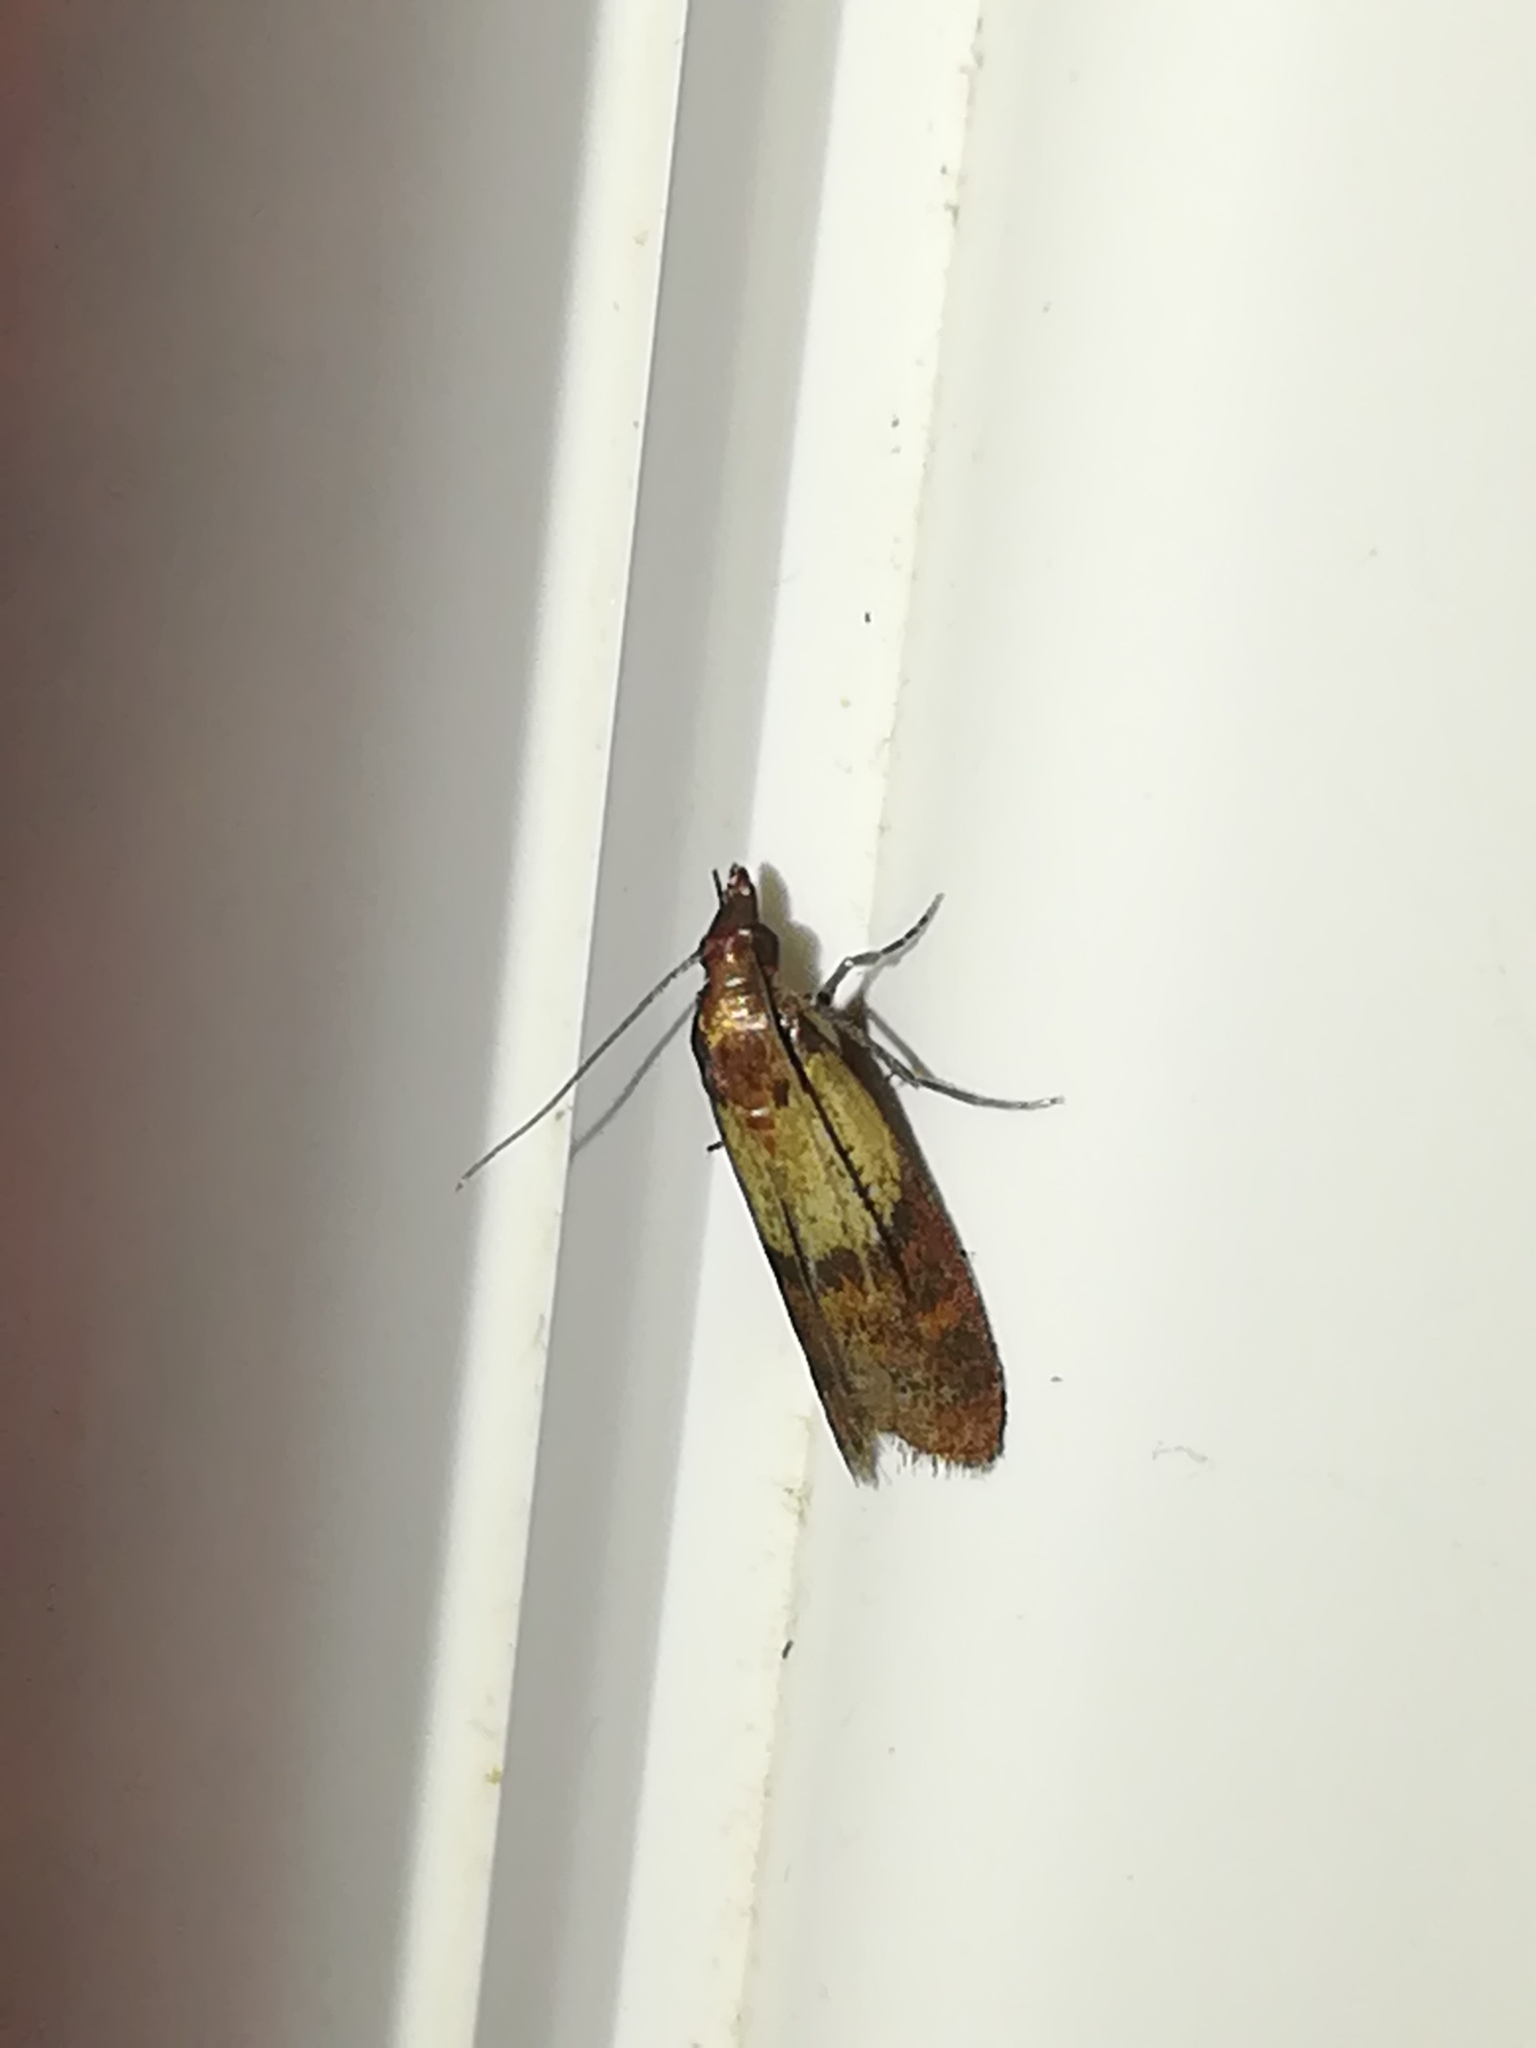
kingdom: Animalia
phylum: Arthropoda
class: Insecta
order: Lepidoptera
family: Pyralidae
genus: Plodia
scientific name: Plodia interpunctella
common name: Indian meal moth
